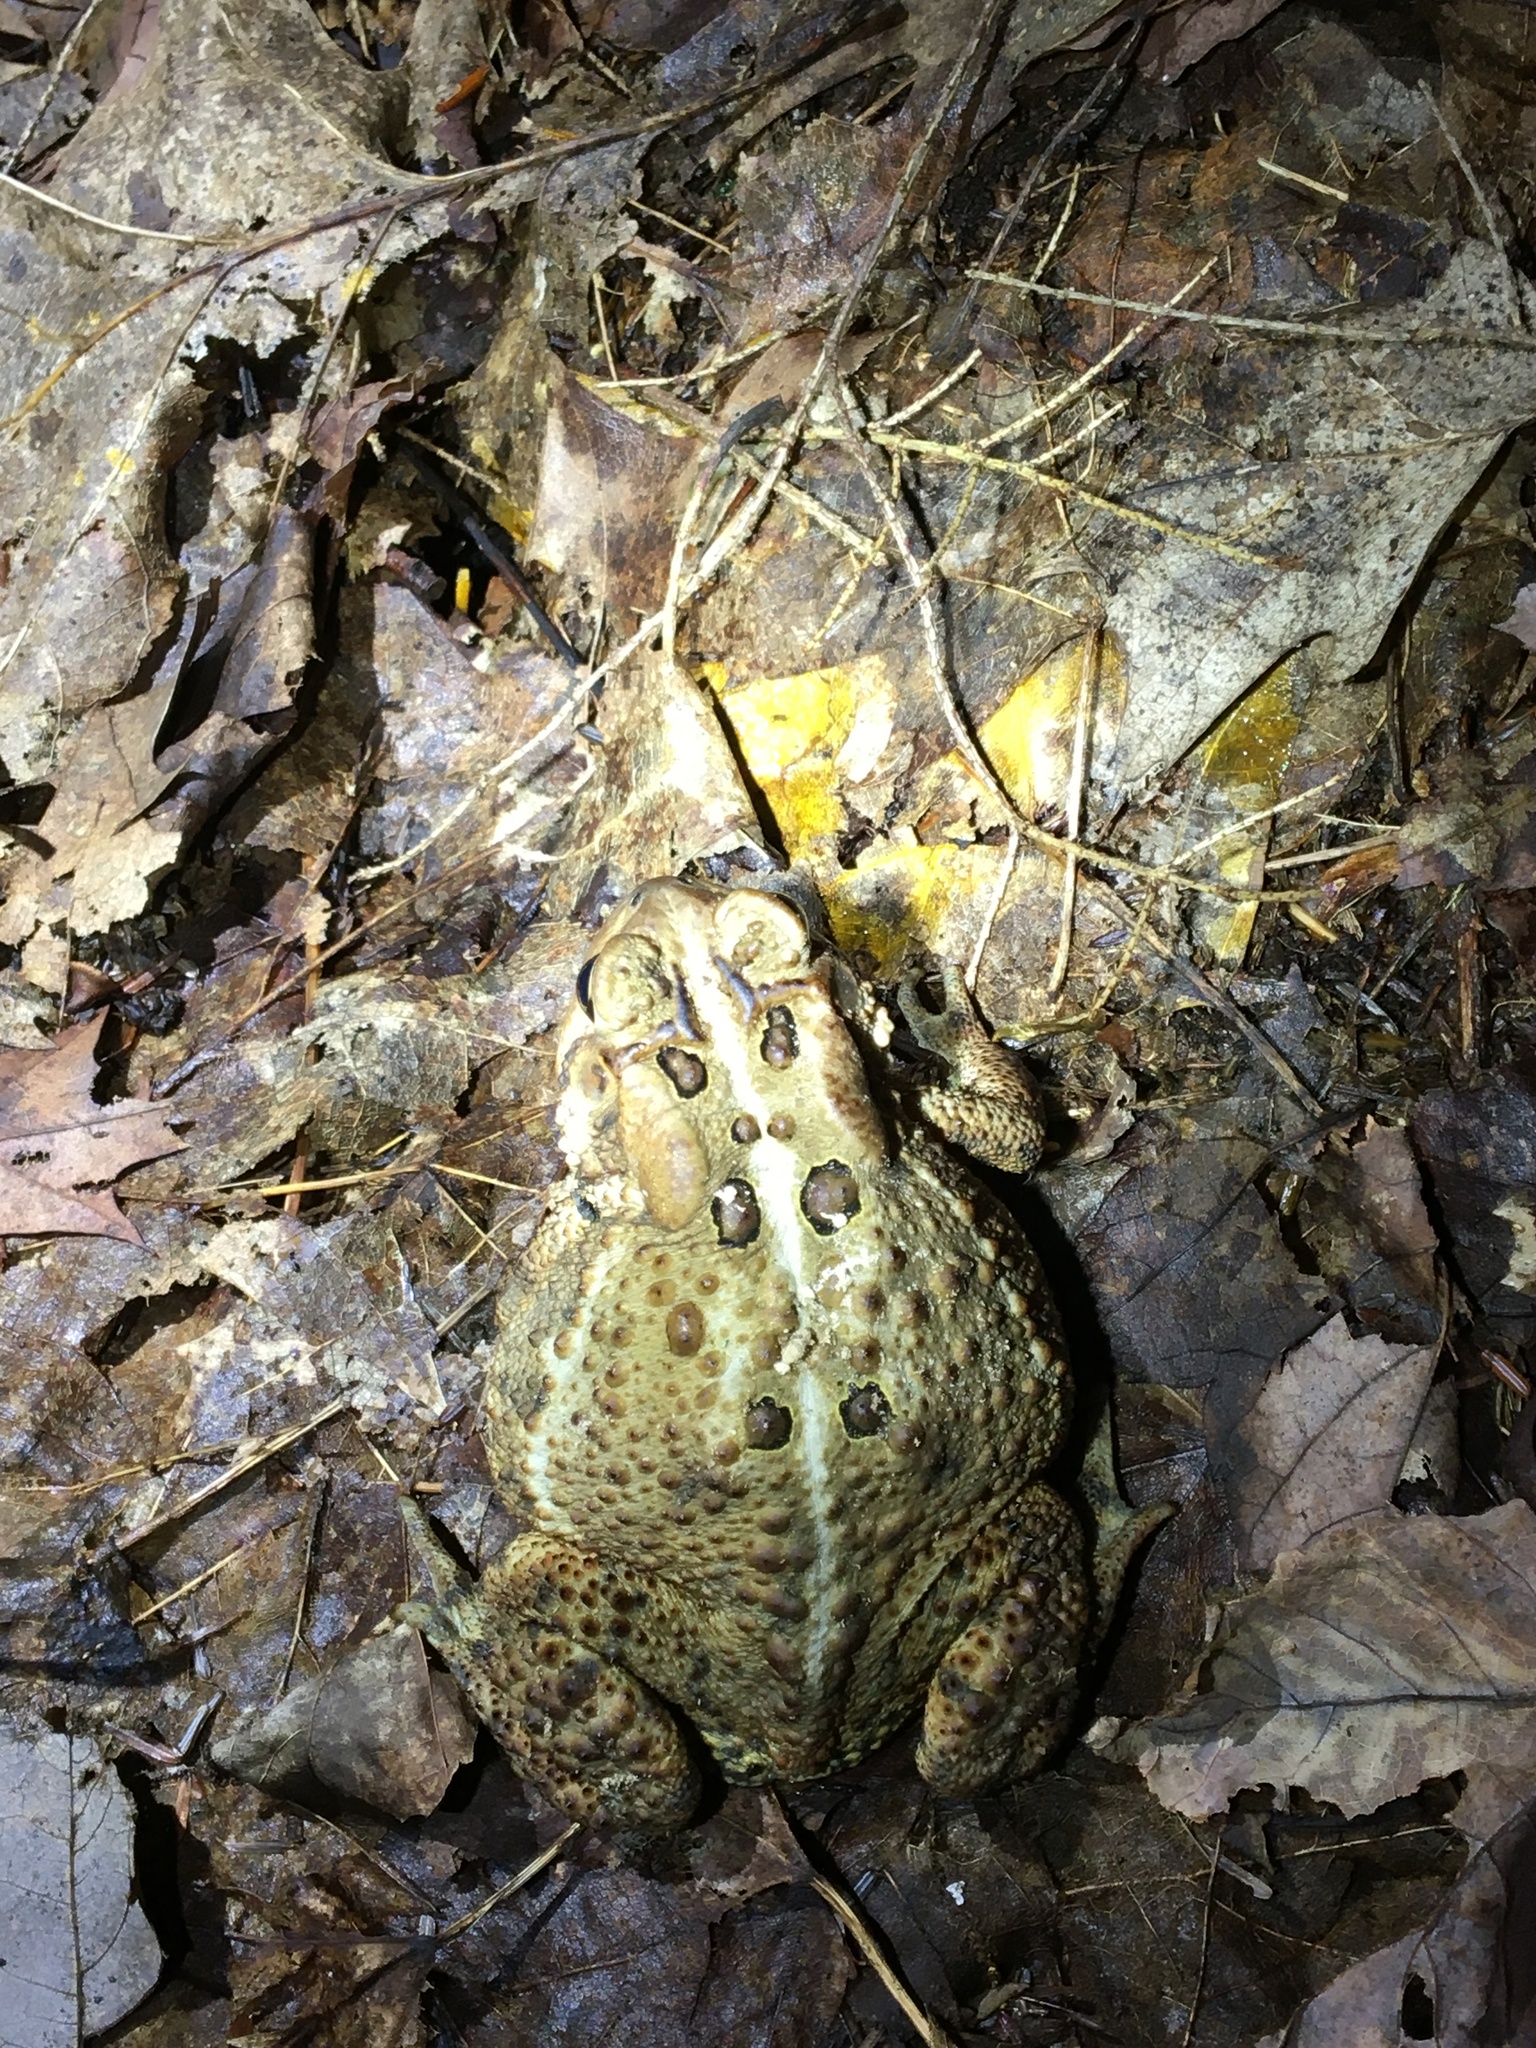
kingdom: Animalia
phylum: Chordata
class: Amphibia
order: Anura
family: Bufonidae
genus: Anaxyrus
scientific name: Anaxyrus americanus
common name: American toad
